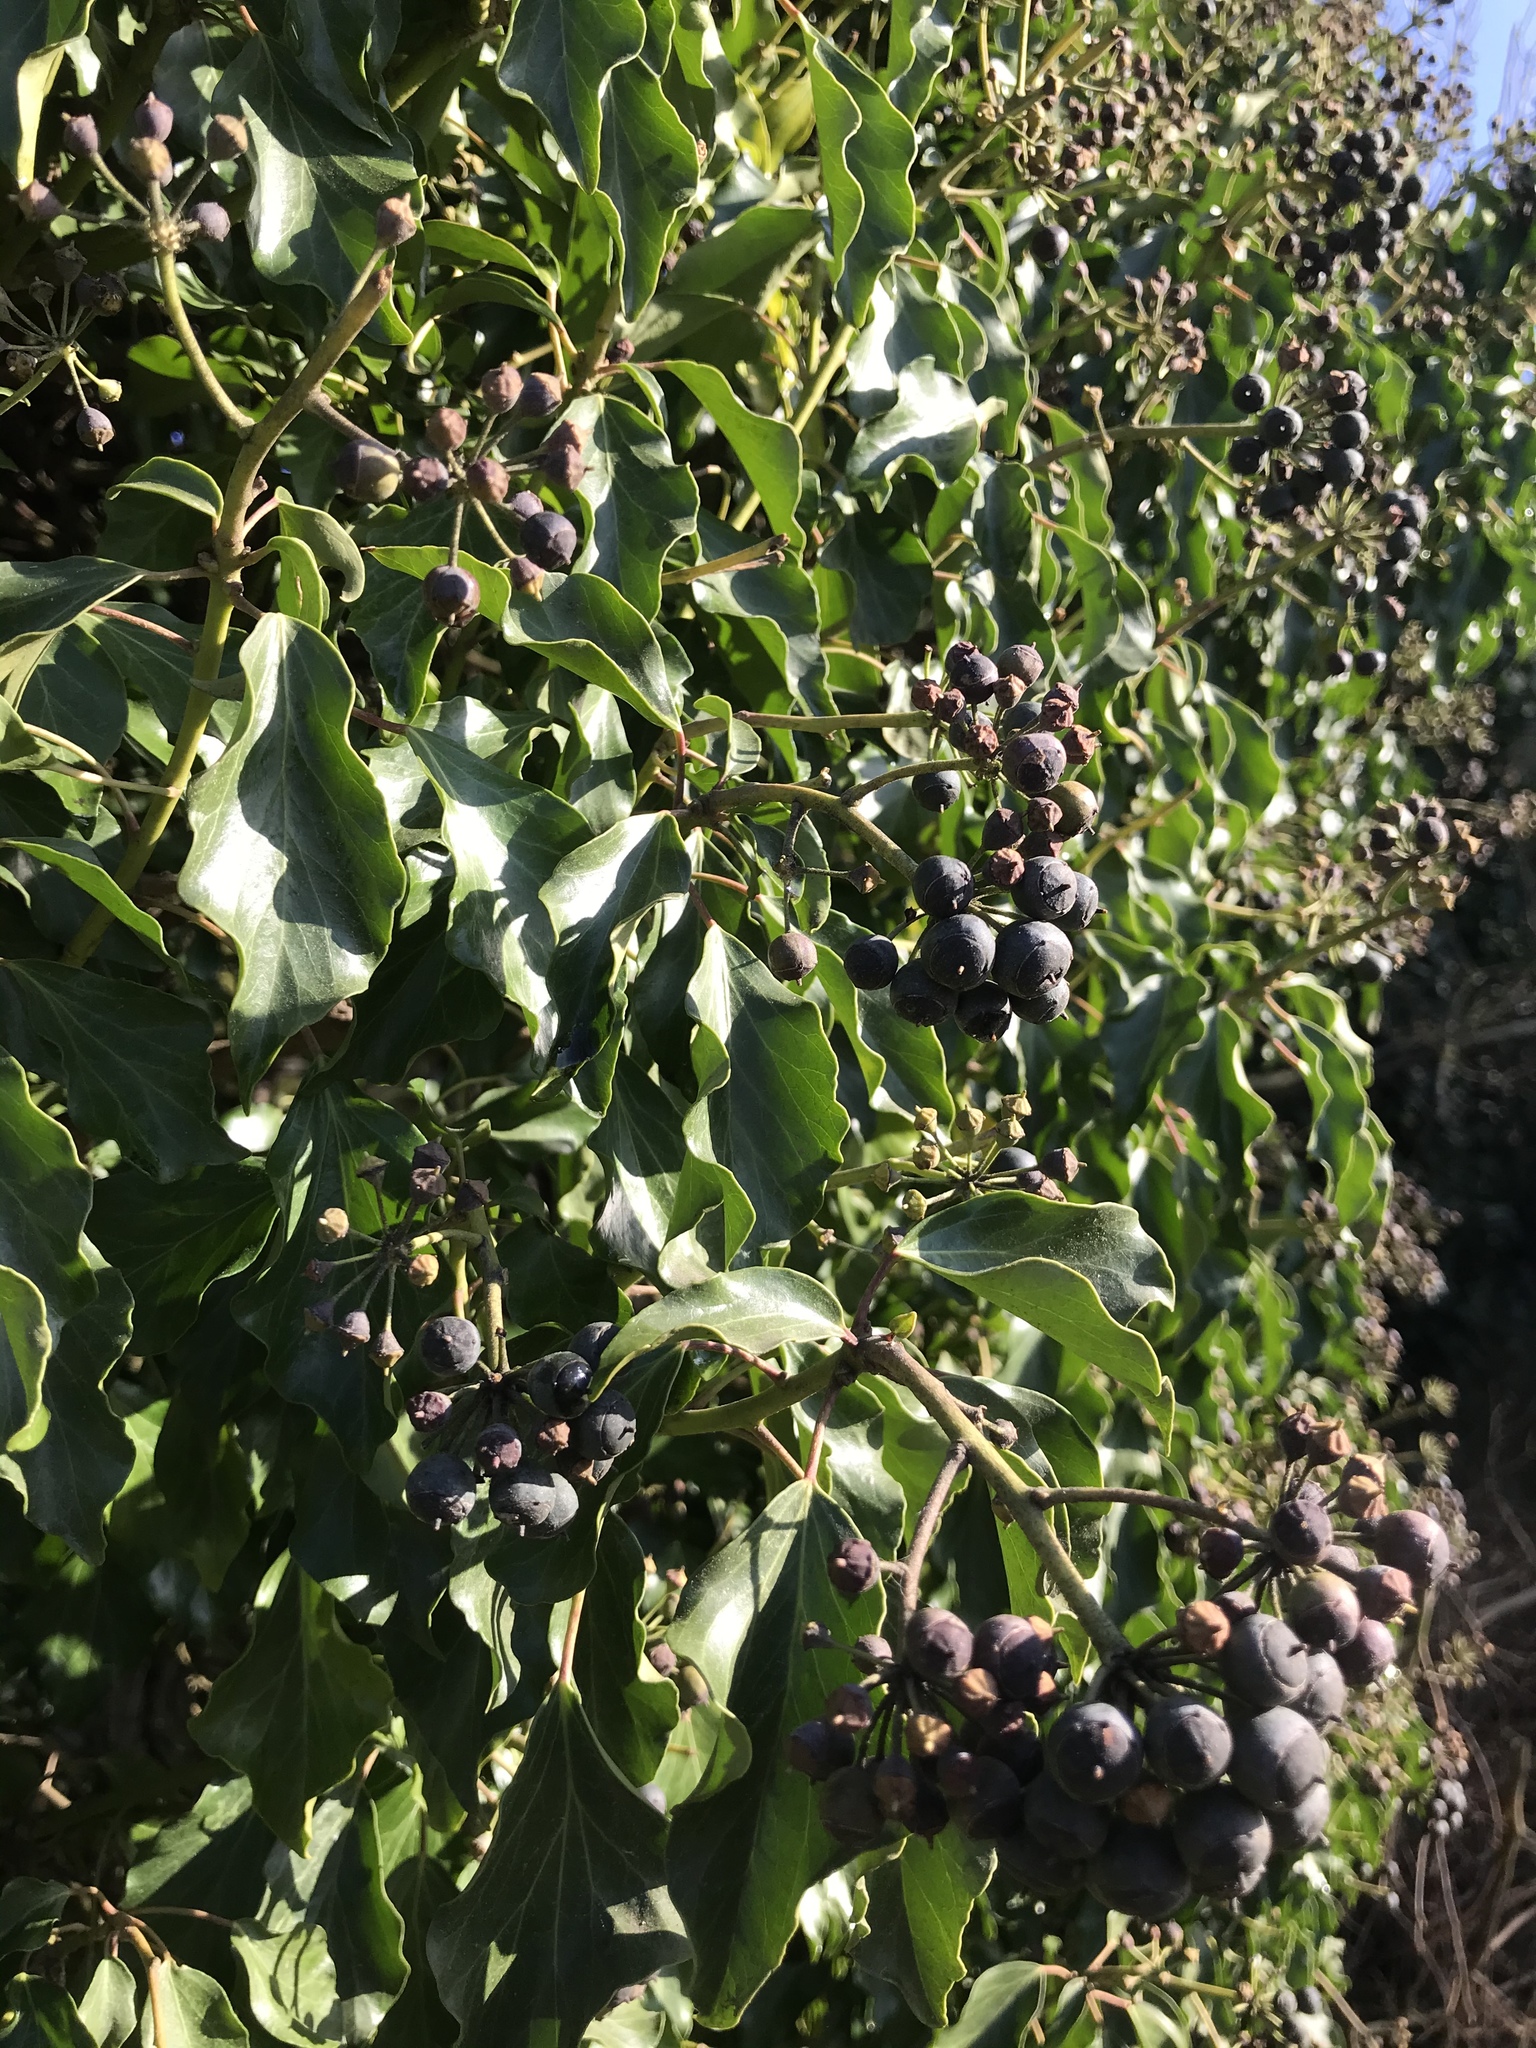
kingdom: Plantae
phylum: Tracheophyta
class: Magnoliopsida
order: Apiales
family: Araliaceae
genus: Hedera
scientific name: Hedera helix
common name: Ivy
